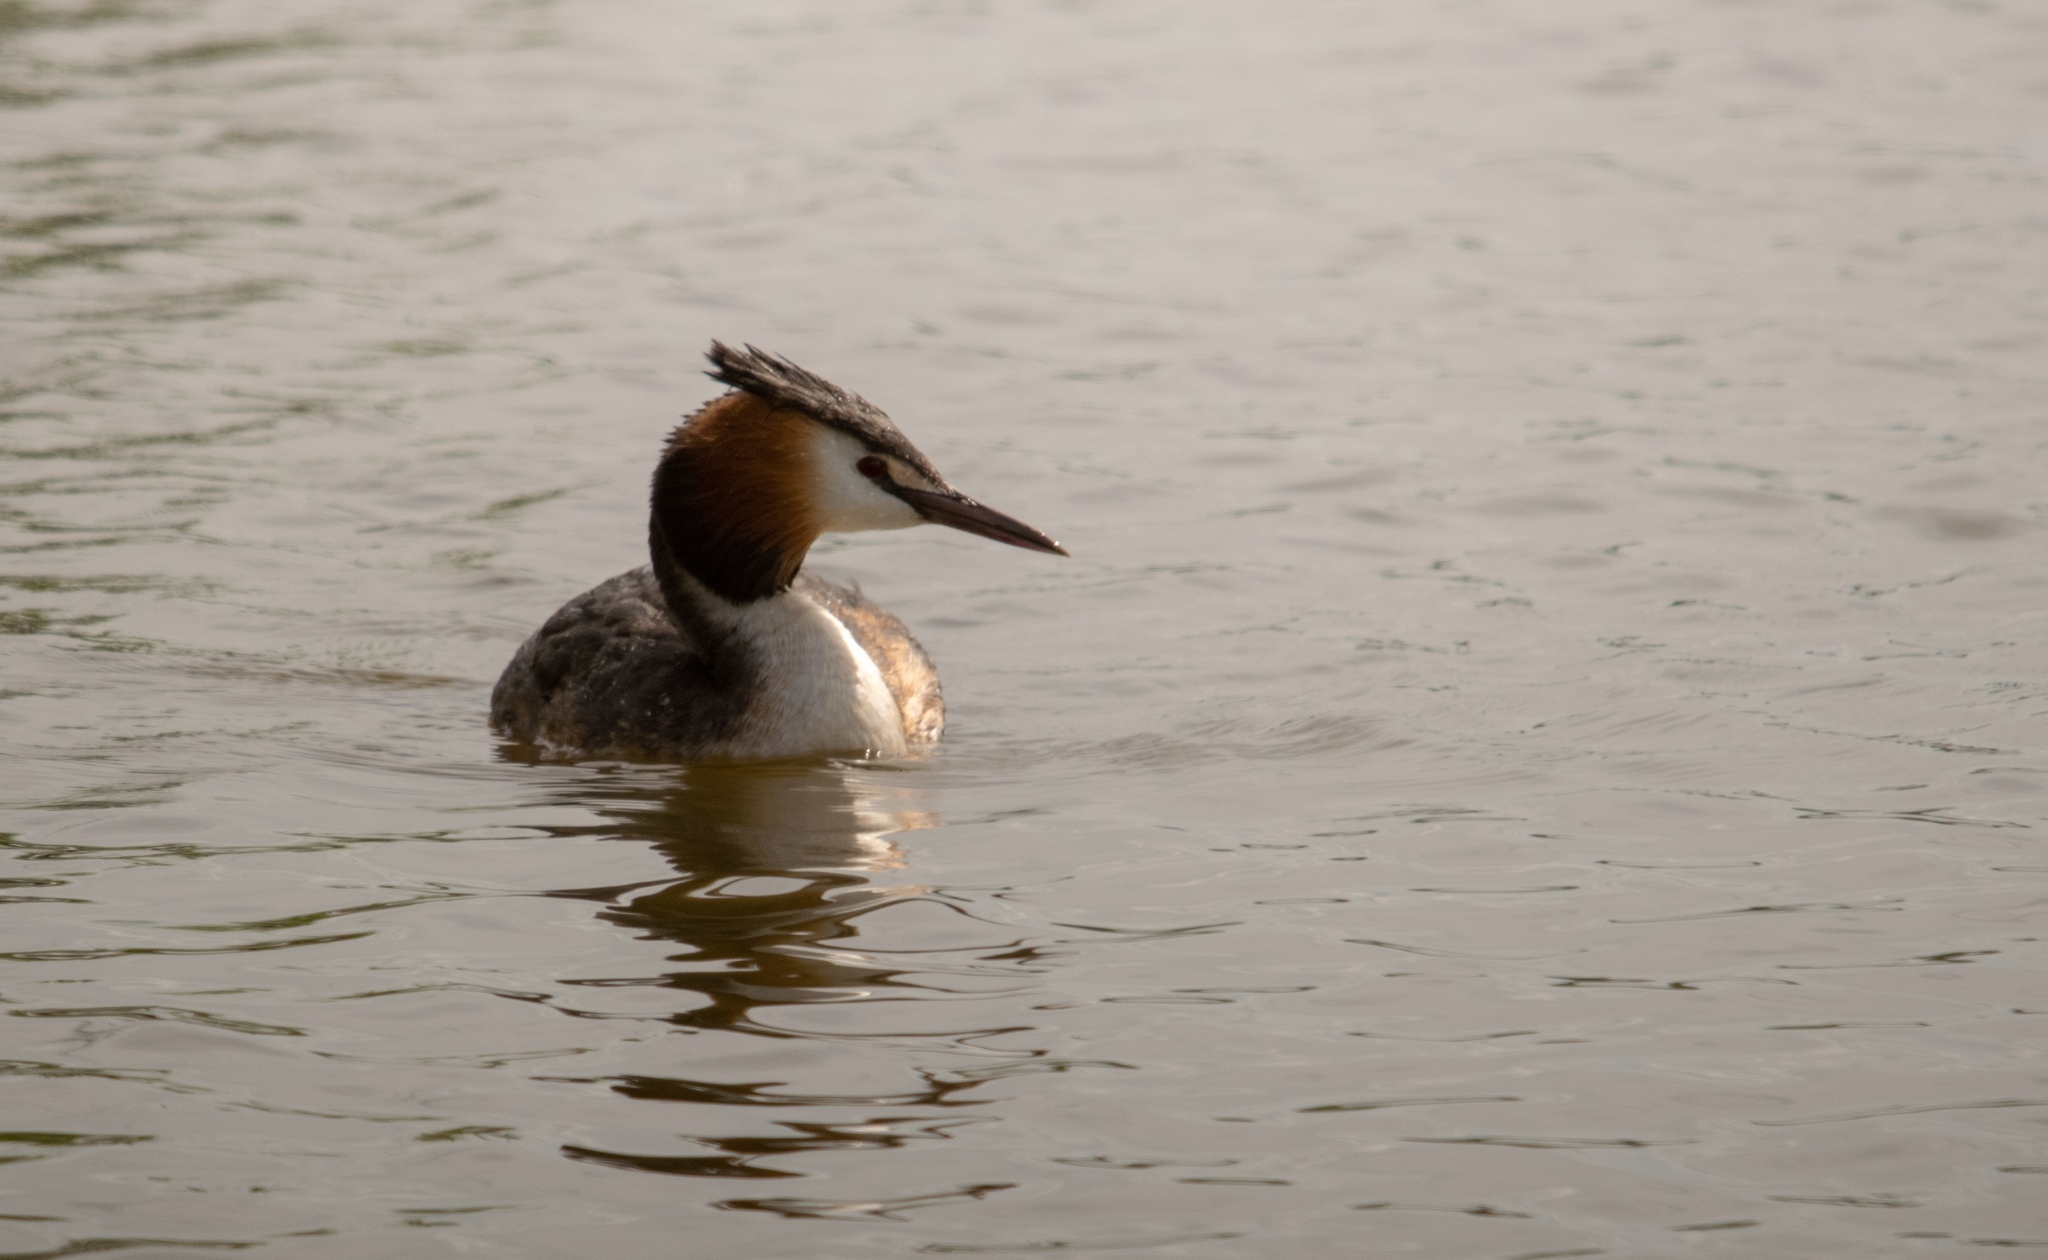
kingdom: Animalia
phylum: Chordata
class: Aves
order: Podicipediformes
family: Podicipedidae
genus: Podiceps
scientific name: Podiceps cristatus
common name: Great crested grebe
